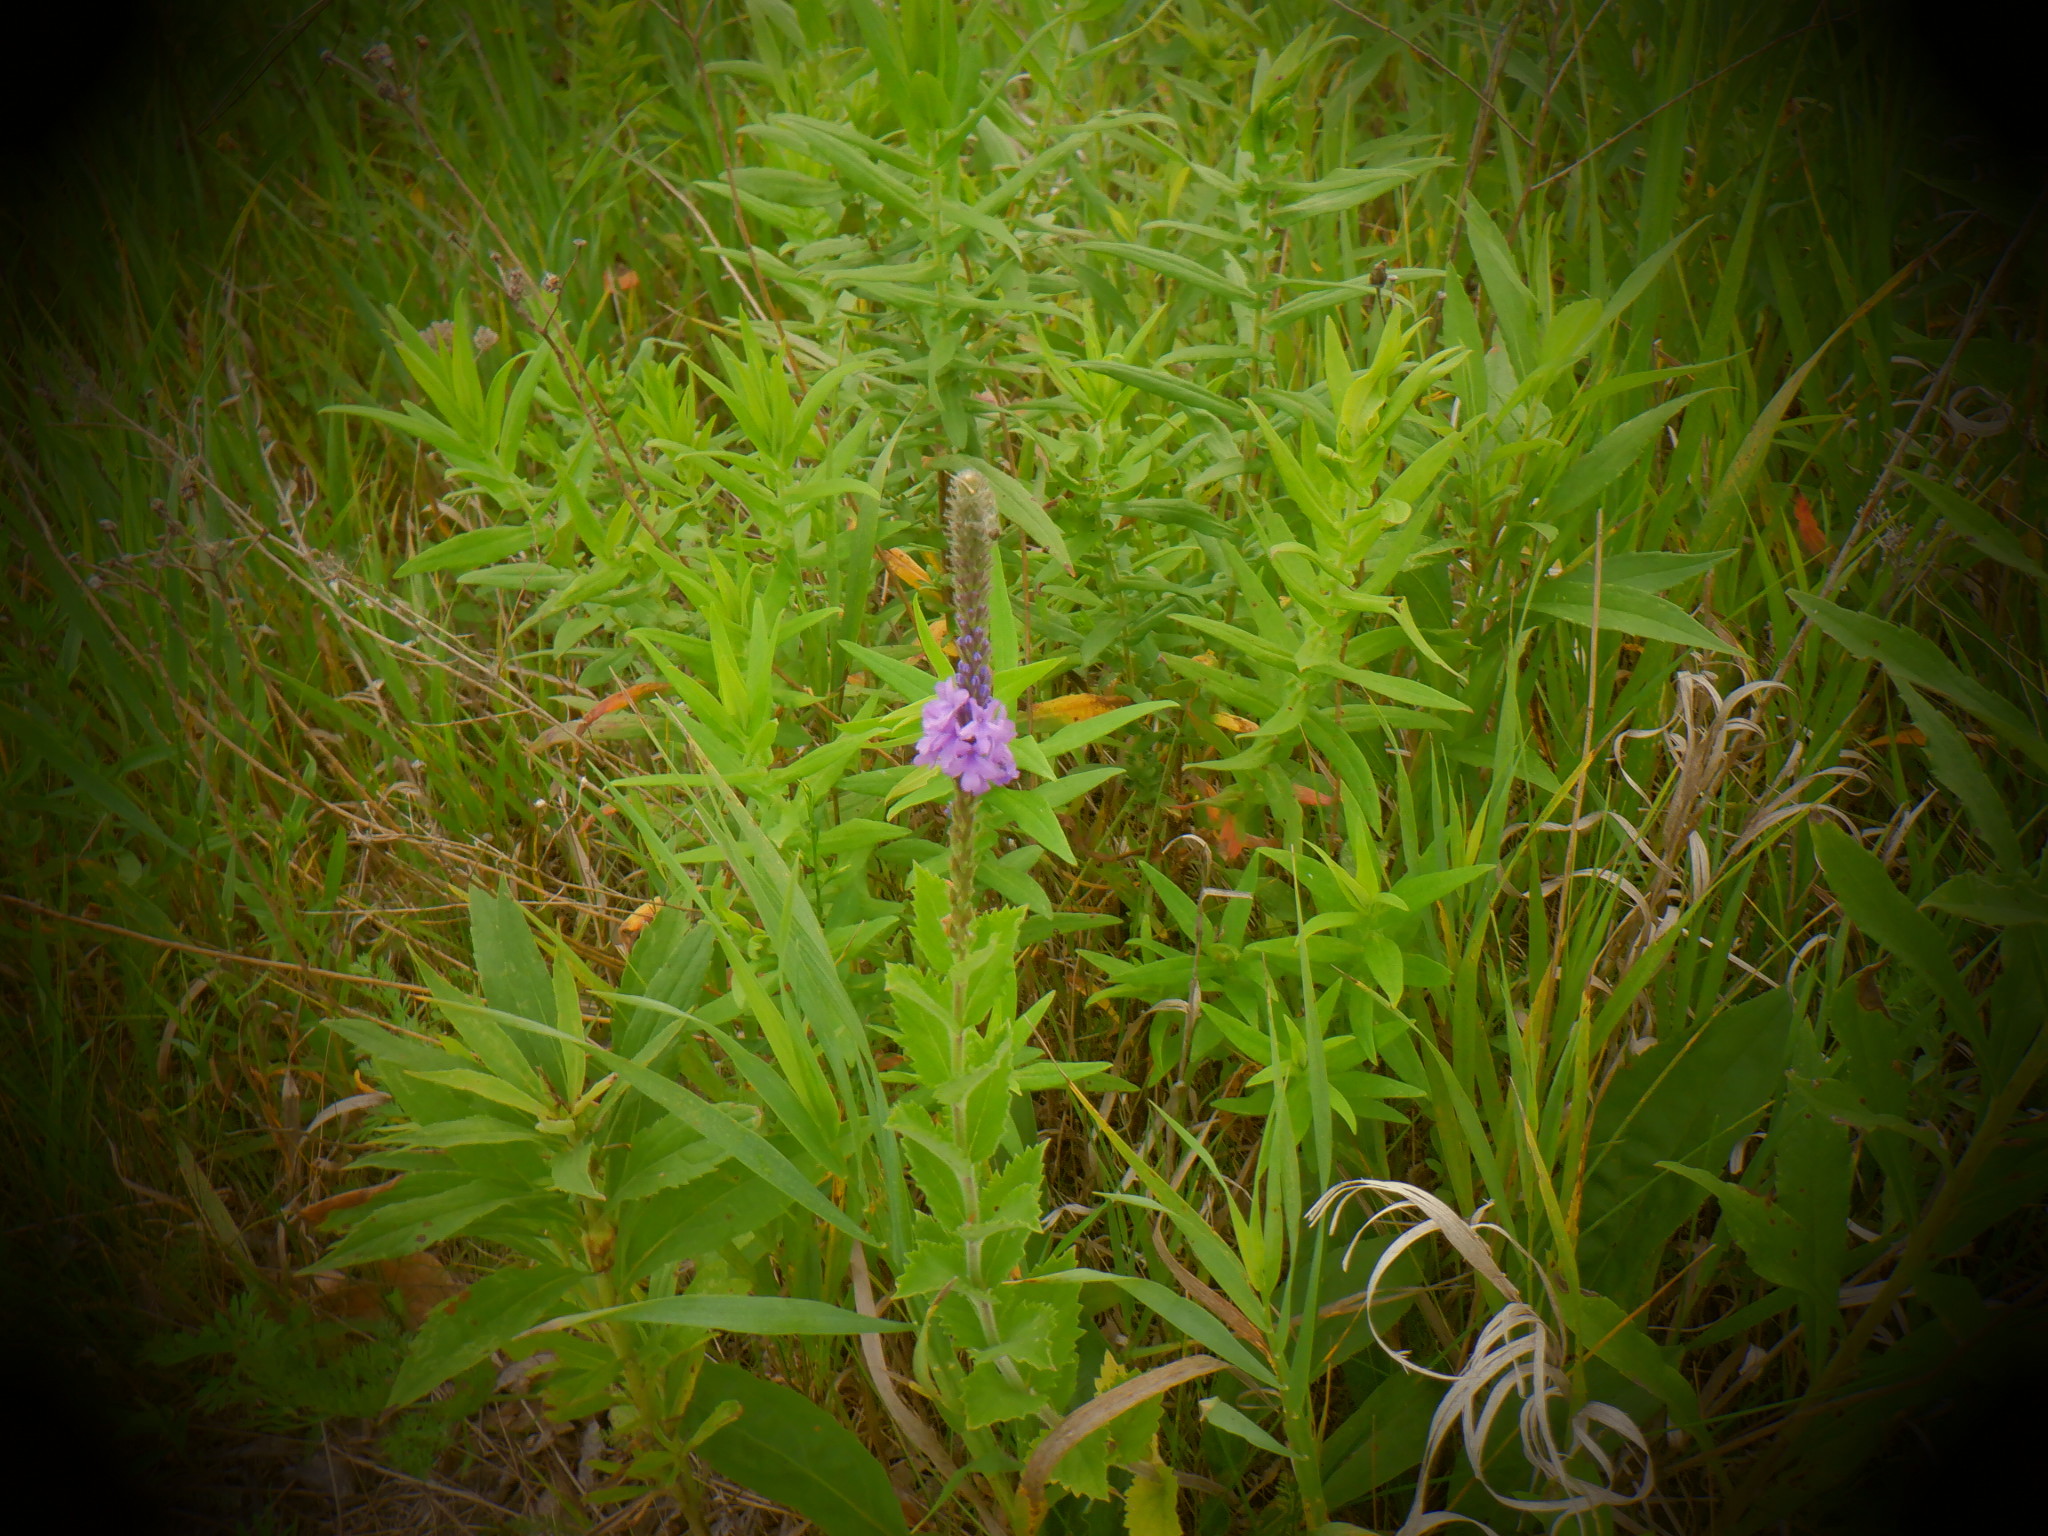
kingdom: Plantae
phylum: Tracheophyta
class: Magnoliopsida
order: Lamiales
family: Verbenaceae
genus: Verbena
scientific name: Verbena stricta
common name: Hoary vervain
